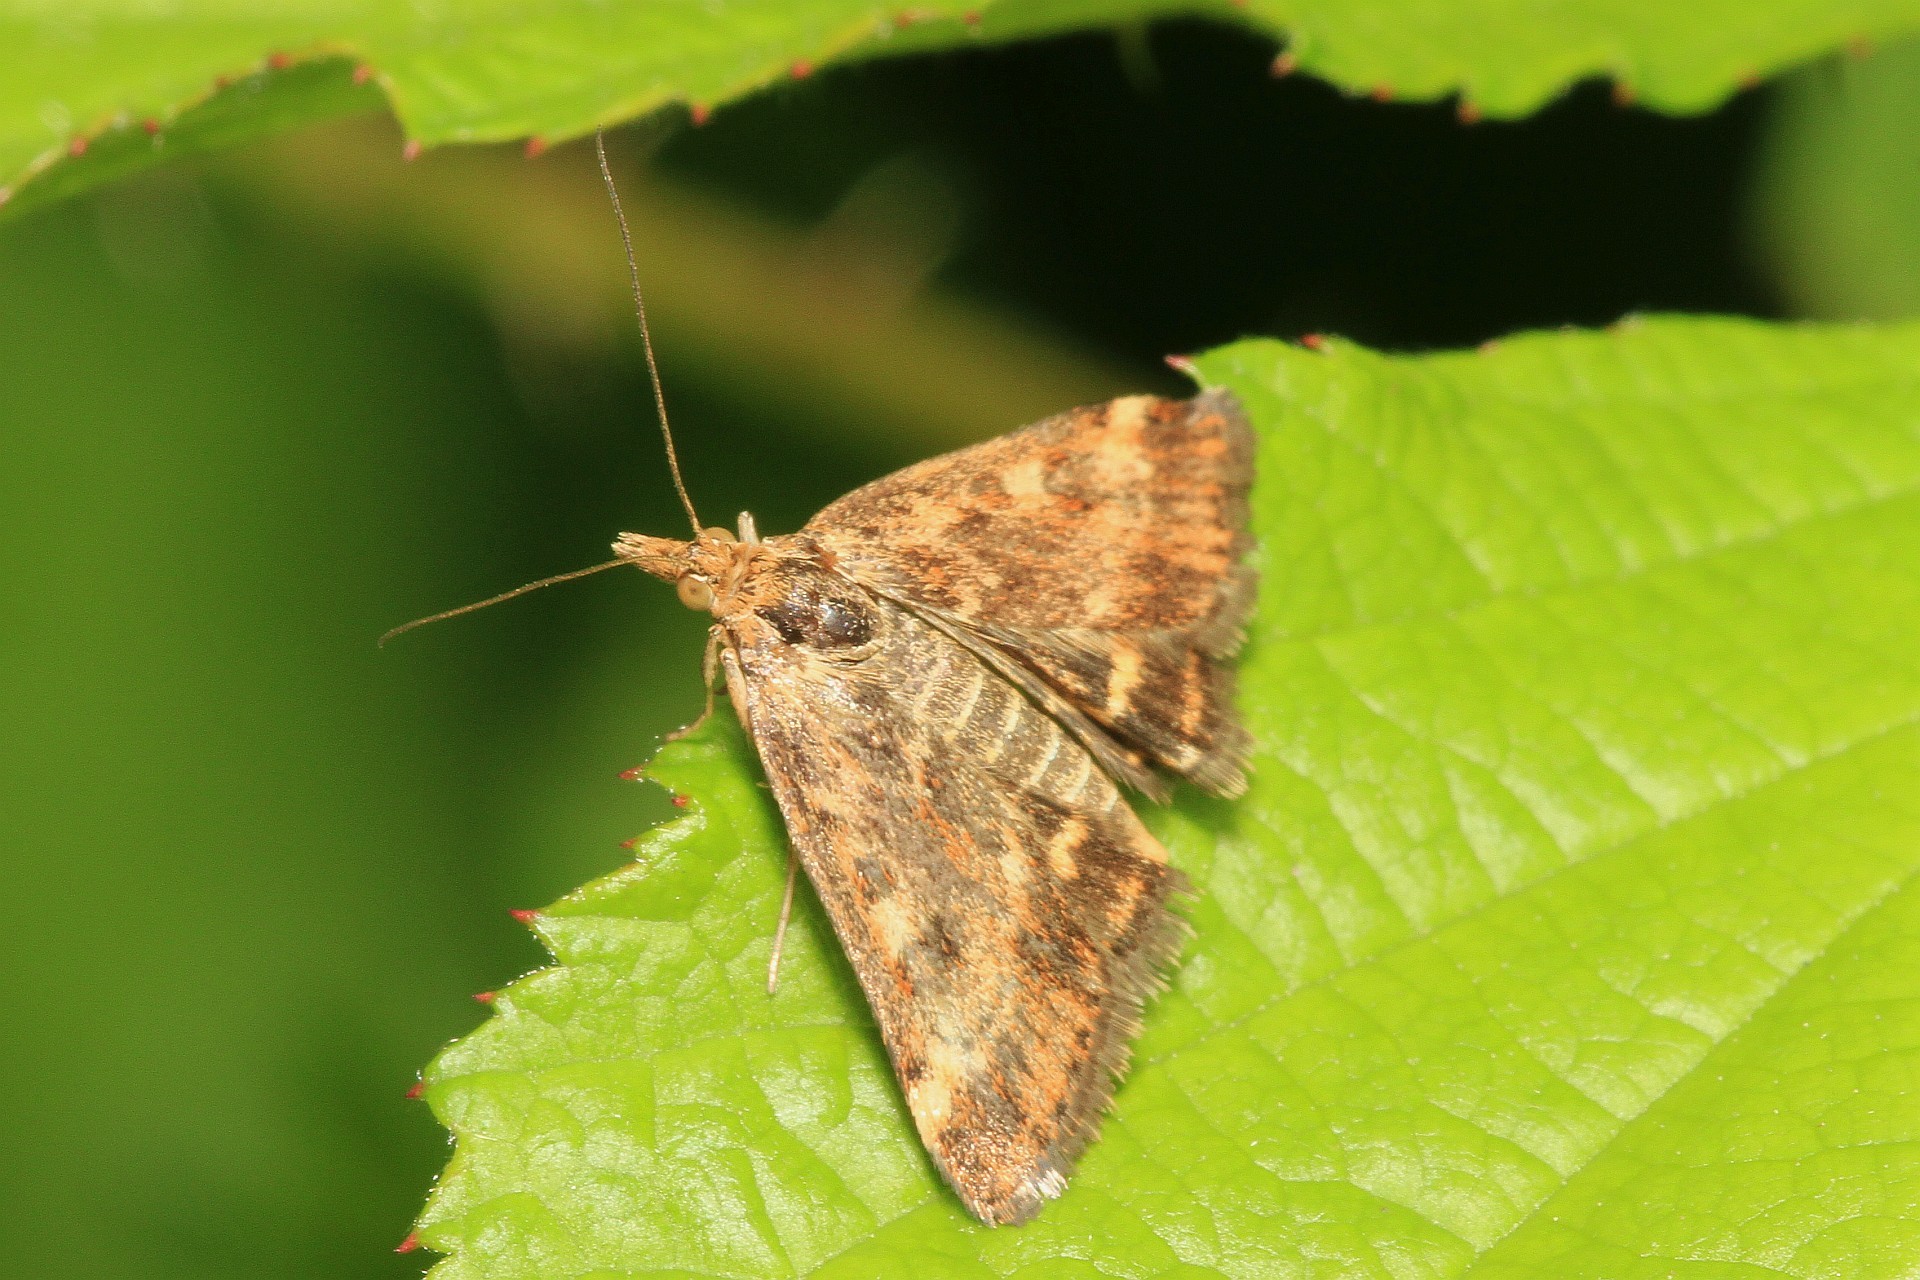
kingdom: Animalia
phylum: Arthropoda
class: Insecta
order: Lepidoptera
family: Crambidae
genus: Pyrausta
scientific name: Pyrausta despicata
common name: Straw-barred pearl
